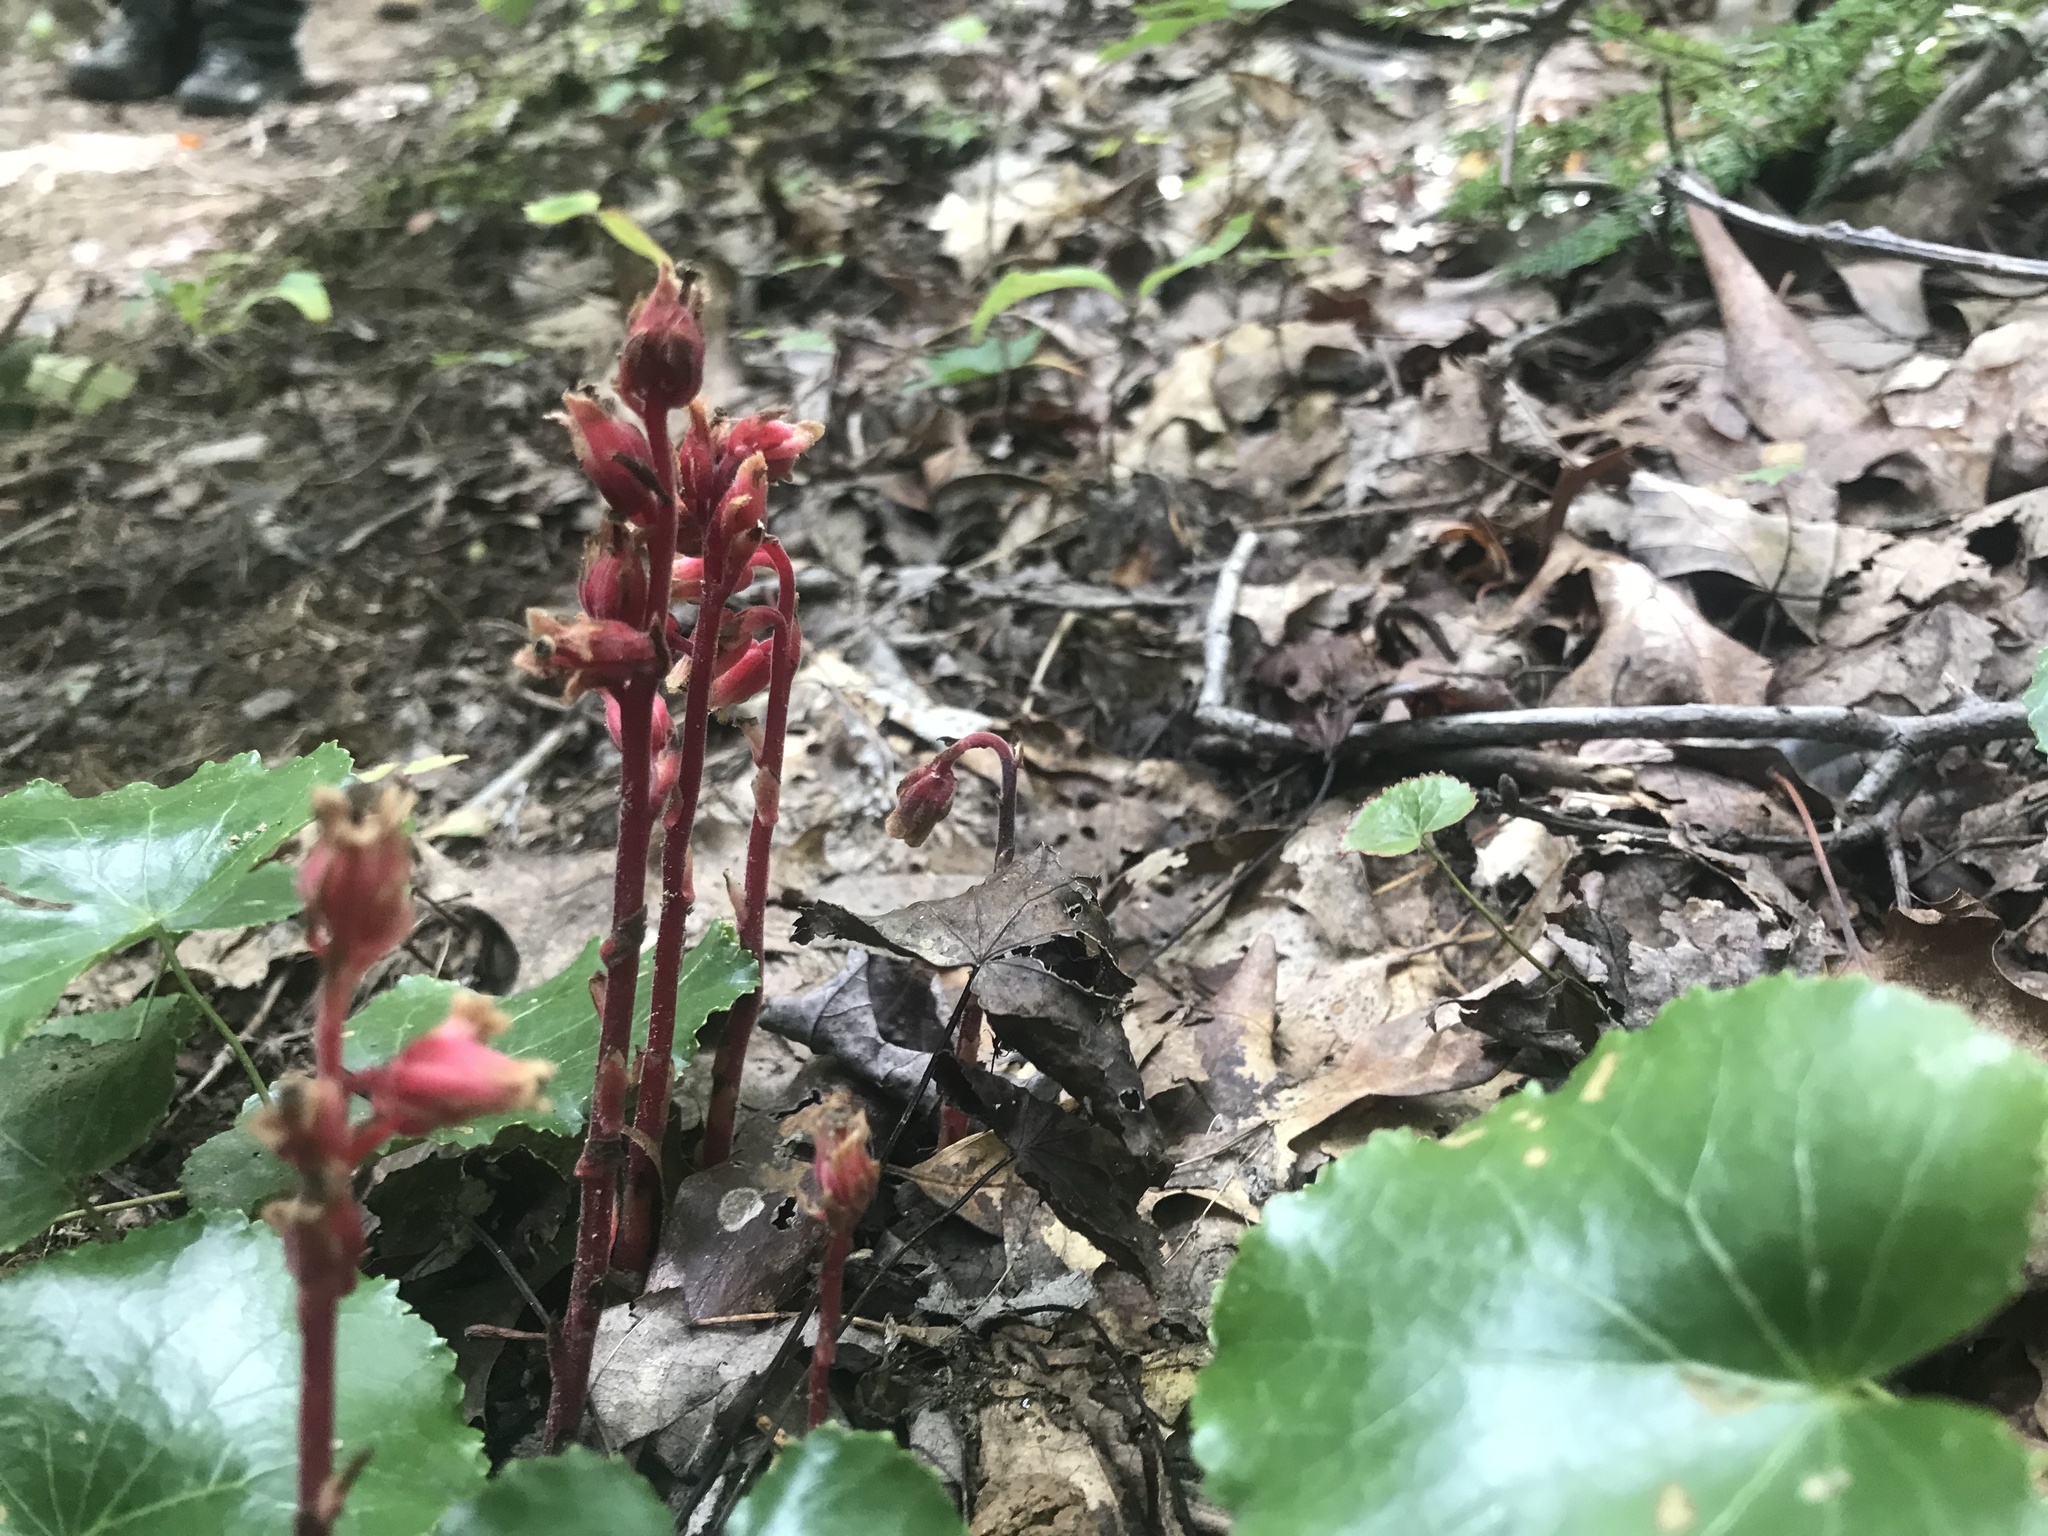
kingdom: Plantae
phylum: Tracheophyta
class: Magnoliopsida
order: Ericales
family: Ericaceae
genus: Hypopitys
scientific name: Hypopitys monotropa
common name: Yellow bird's-nest
